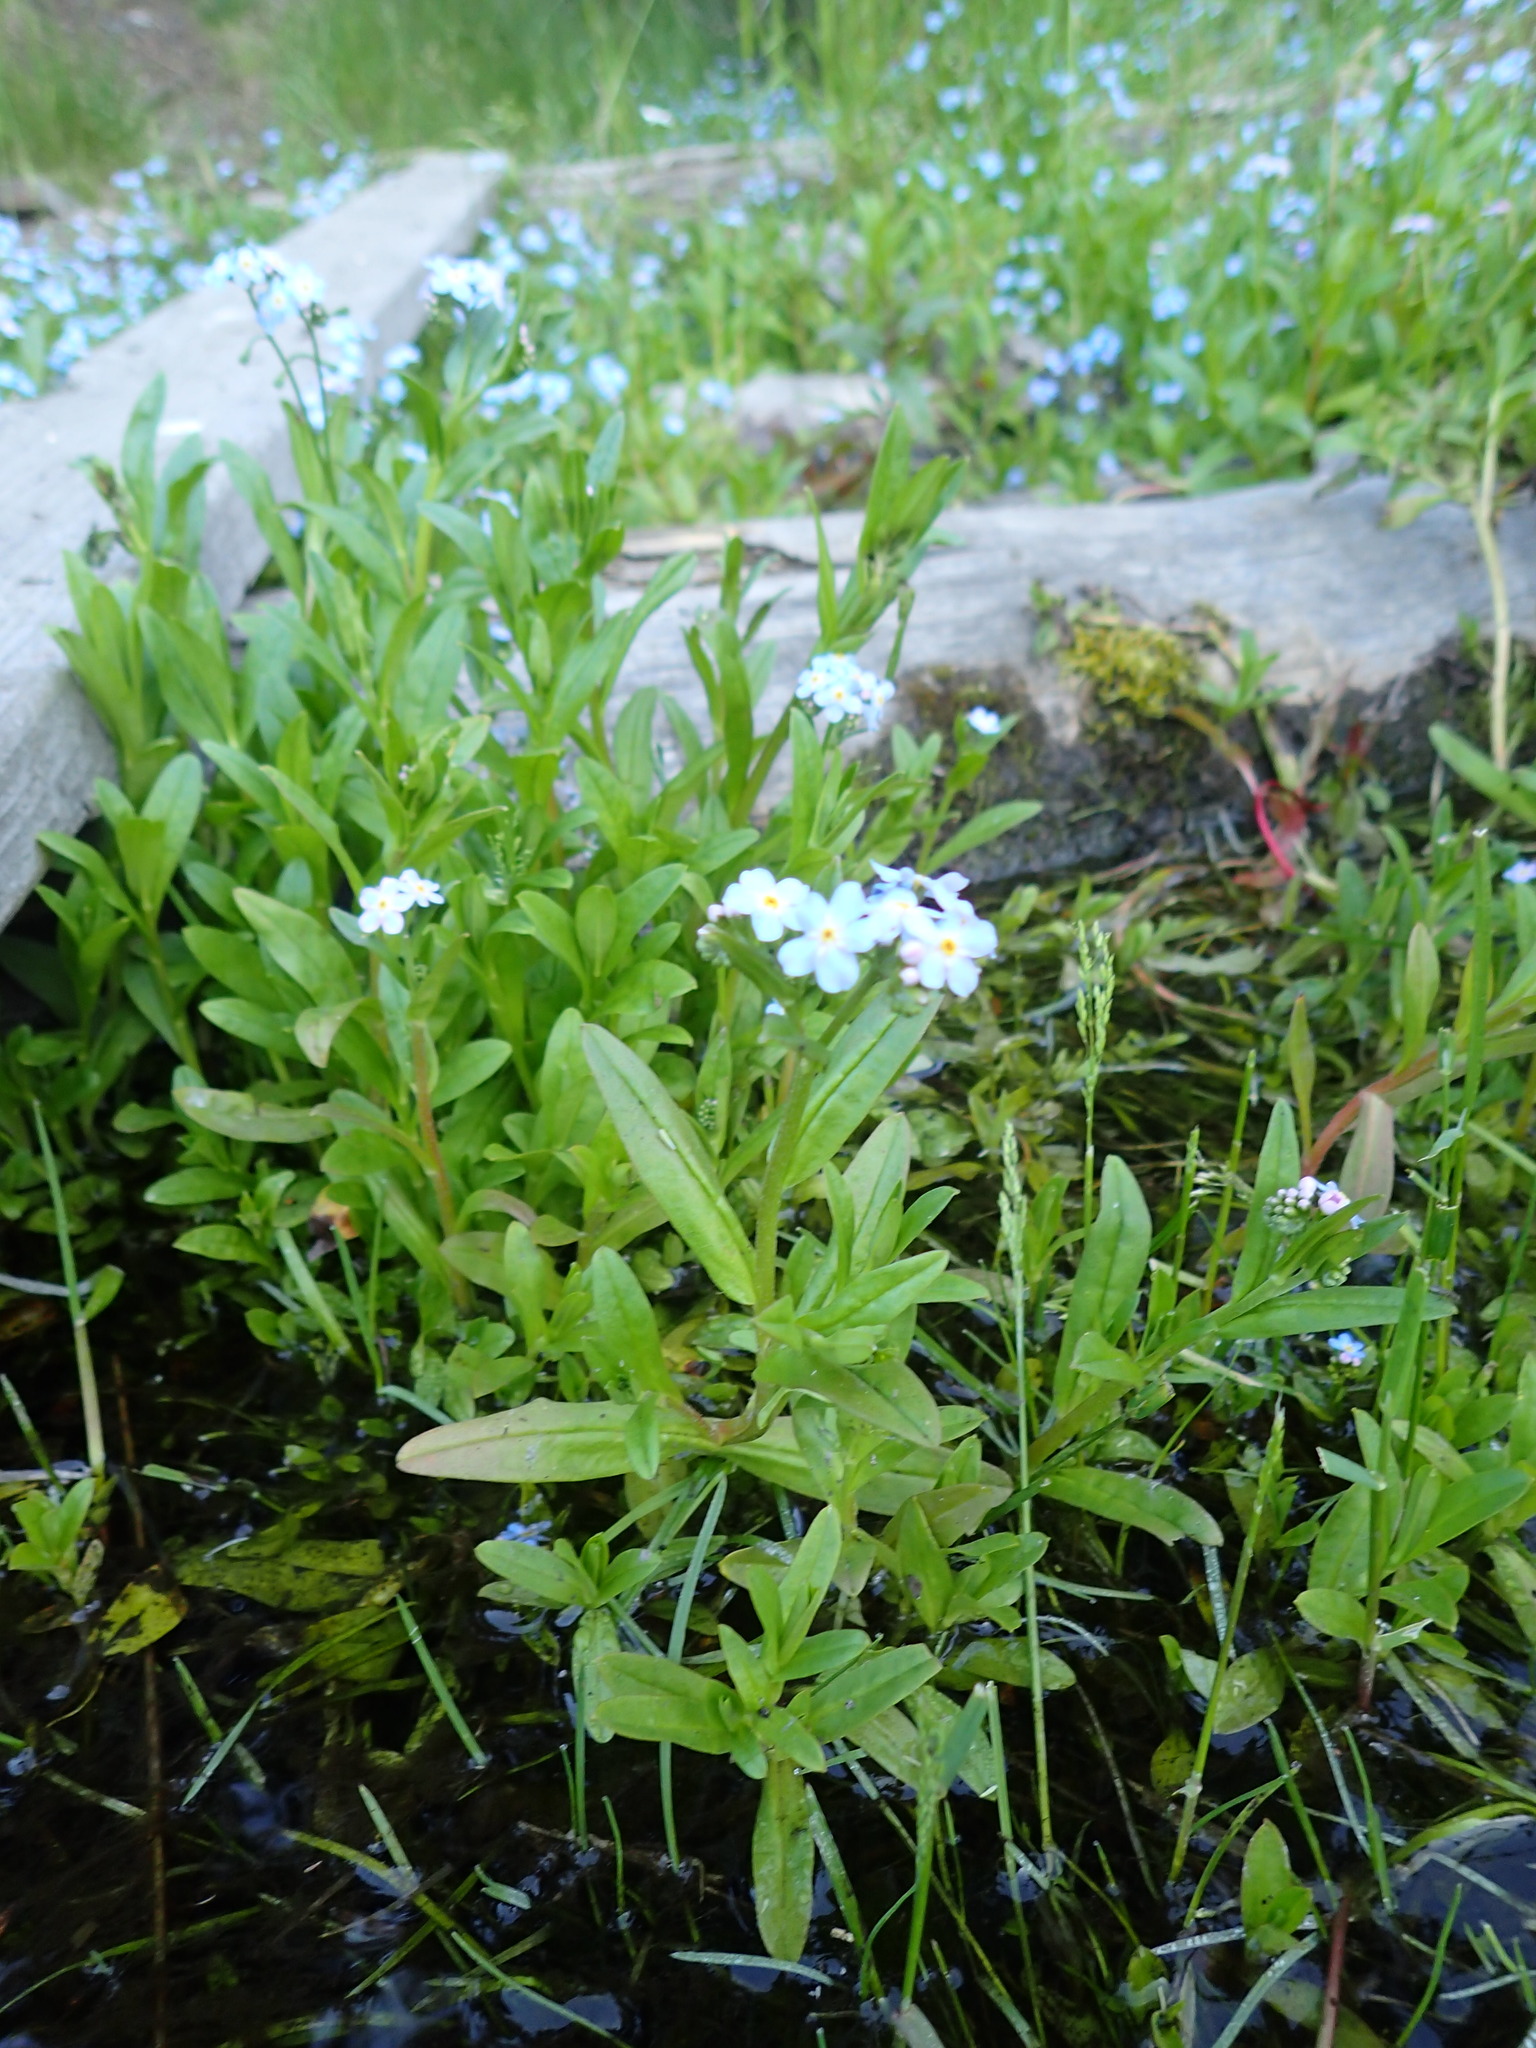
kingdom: Plantae
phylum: Tracheophyta
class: Magnoliopsida
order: Boraginales
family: Boraginaceae
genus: Myosotis
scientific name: Myosotis scorpioides
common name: Water forget-me-not
